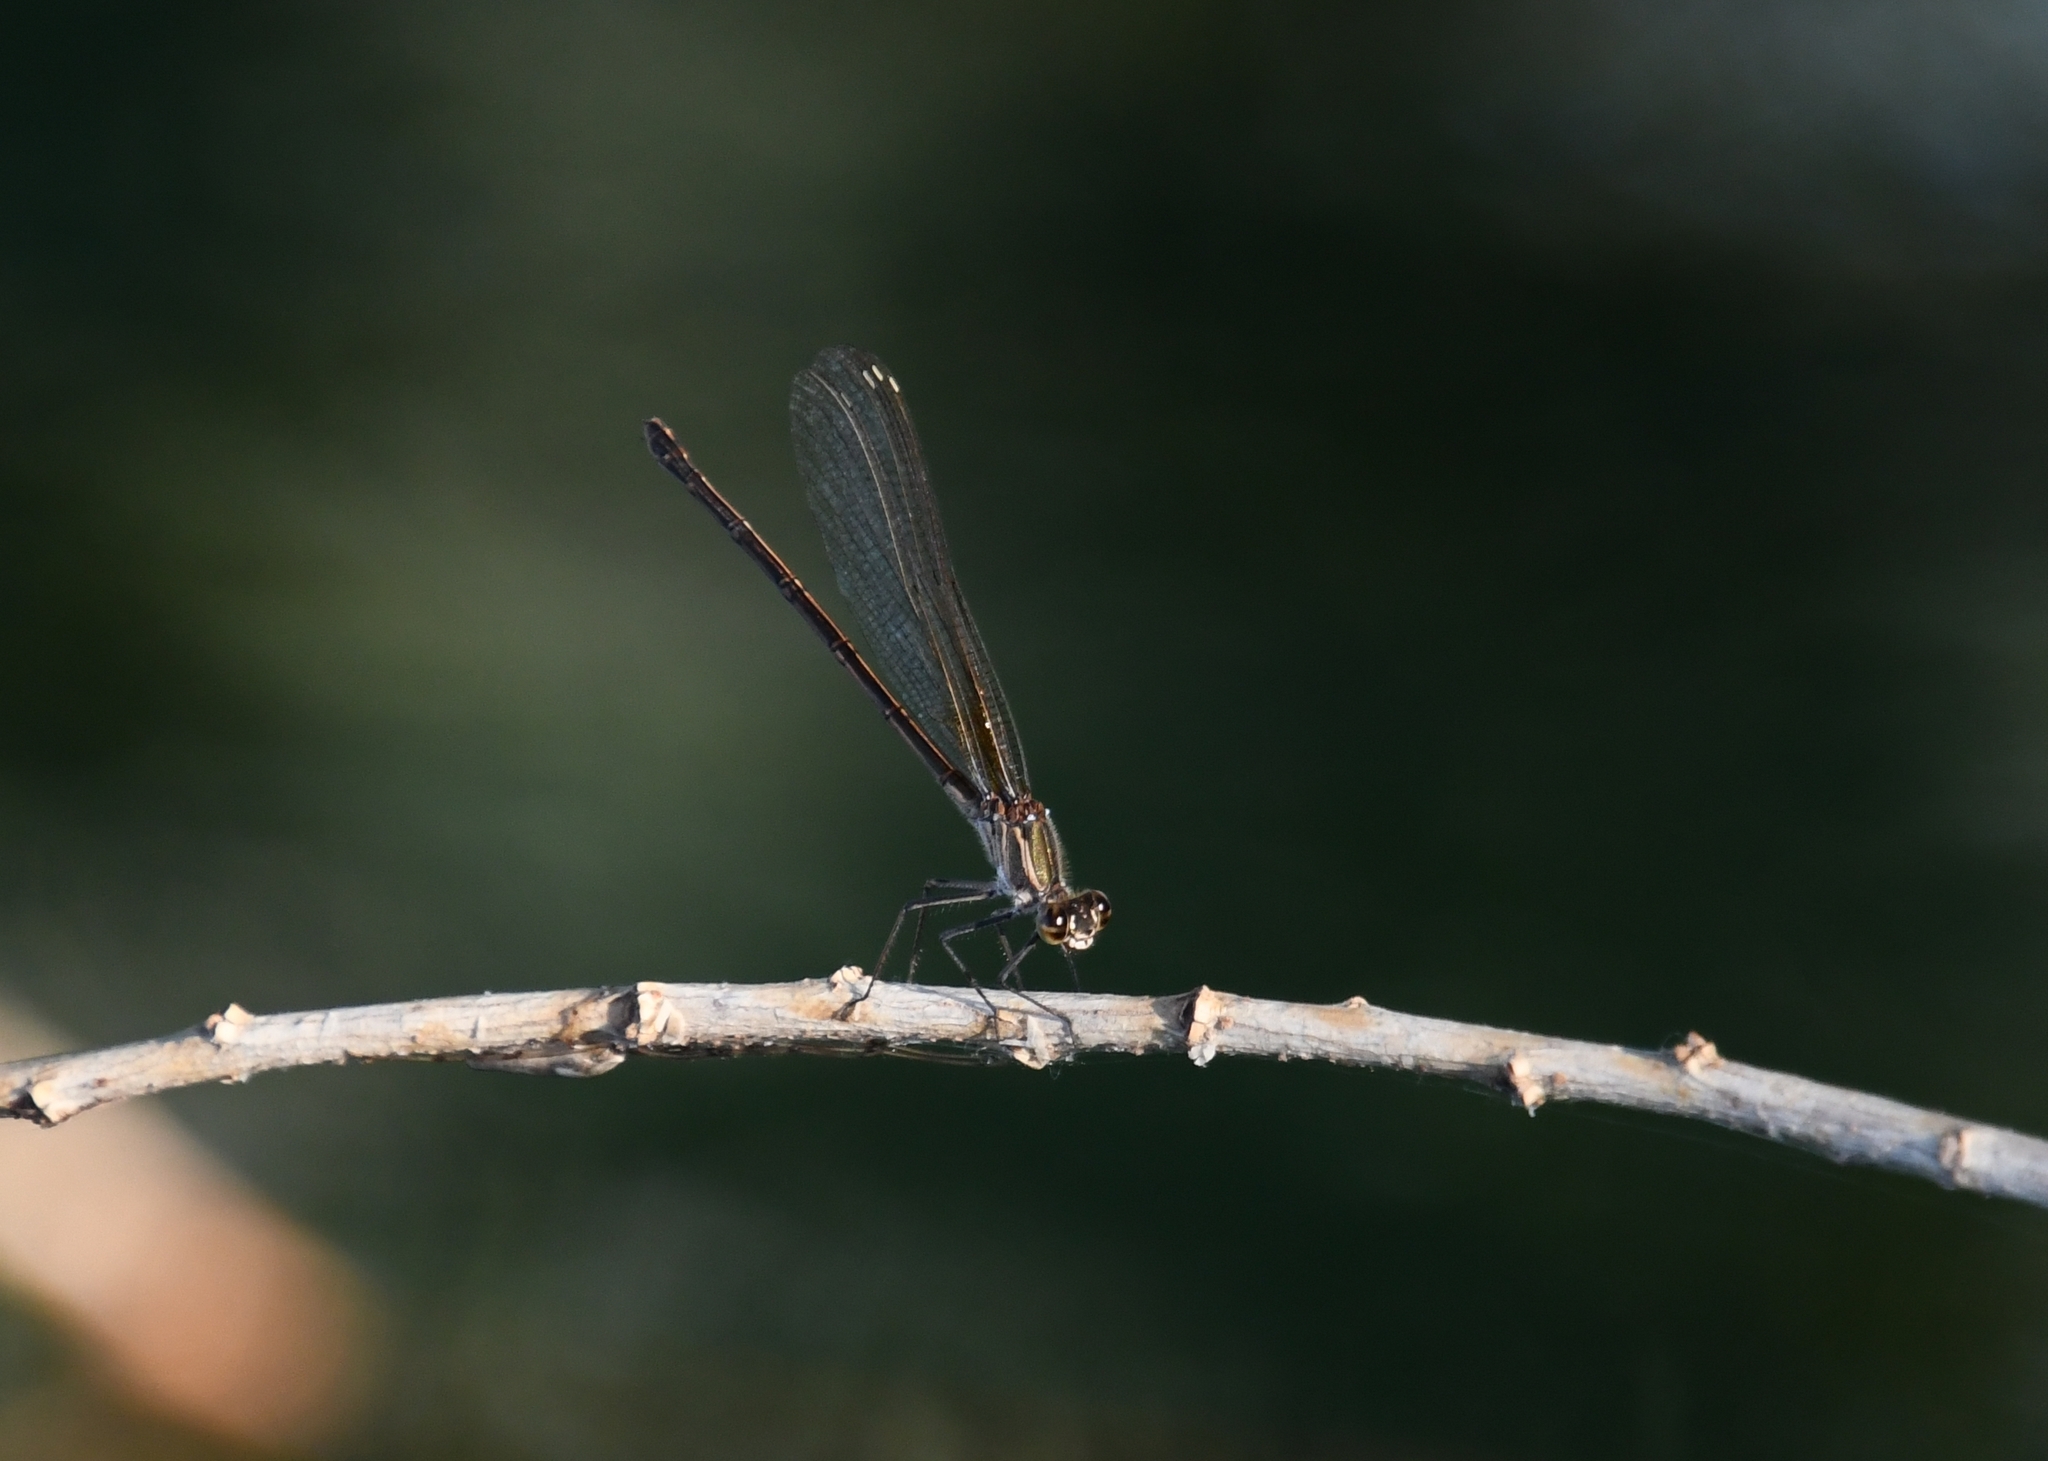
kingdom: Animalia
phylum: Arthropoda
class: Insecta
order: Odonata
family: Calopterygidae
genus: Hetaerina
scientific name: Hetaerina americana
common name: American rubyspot
